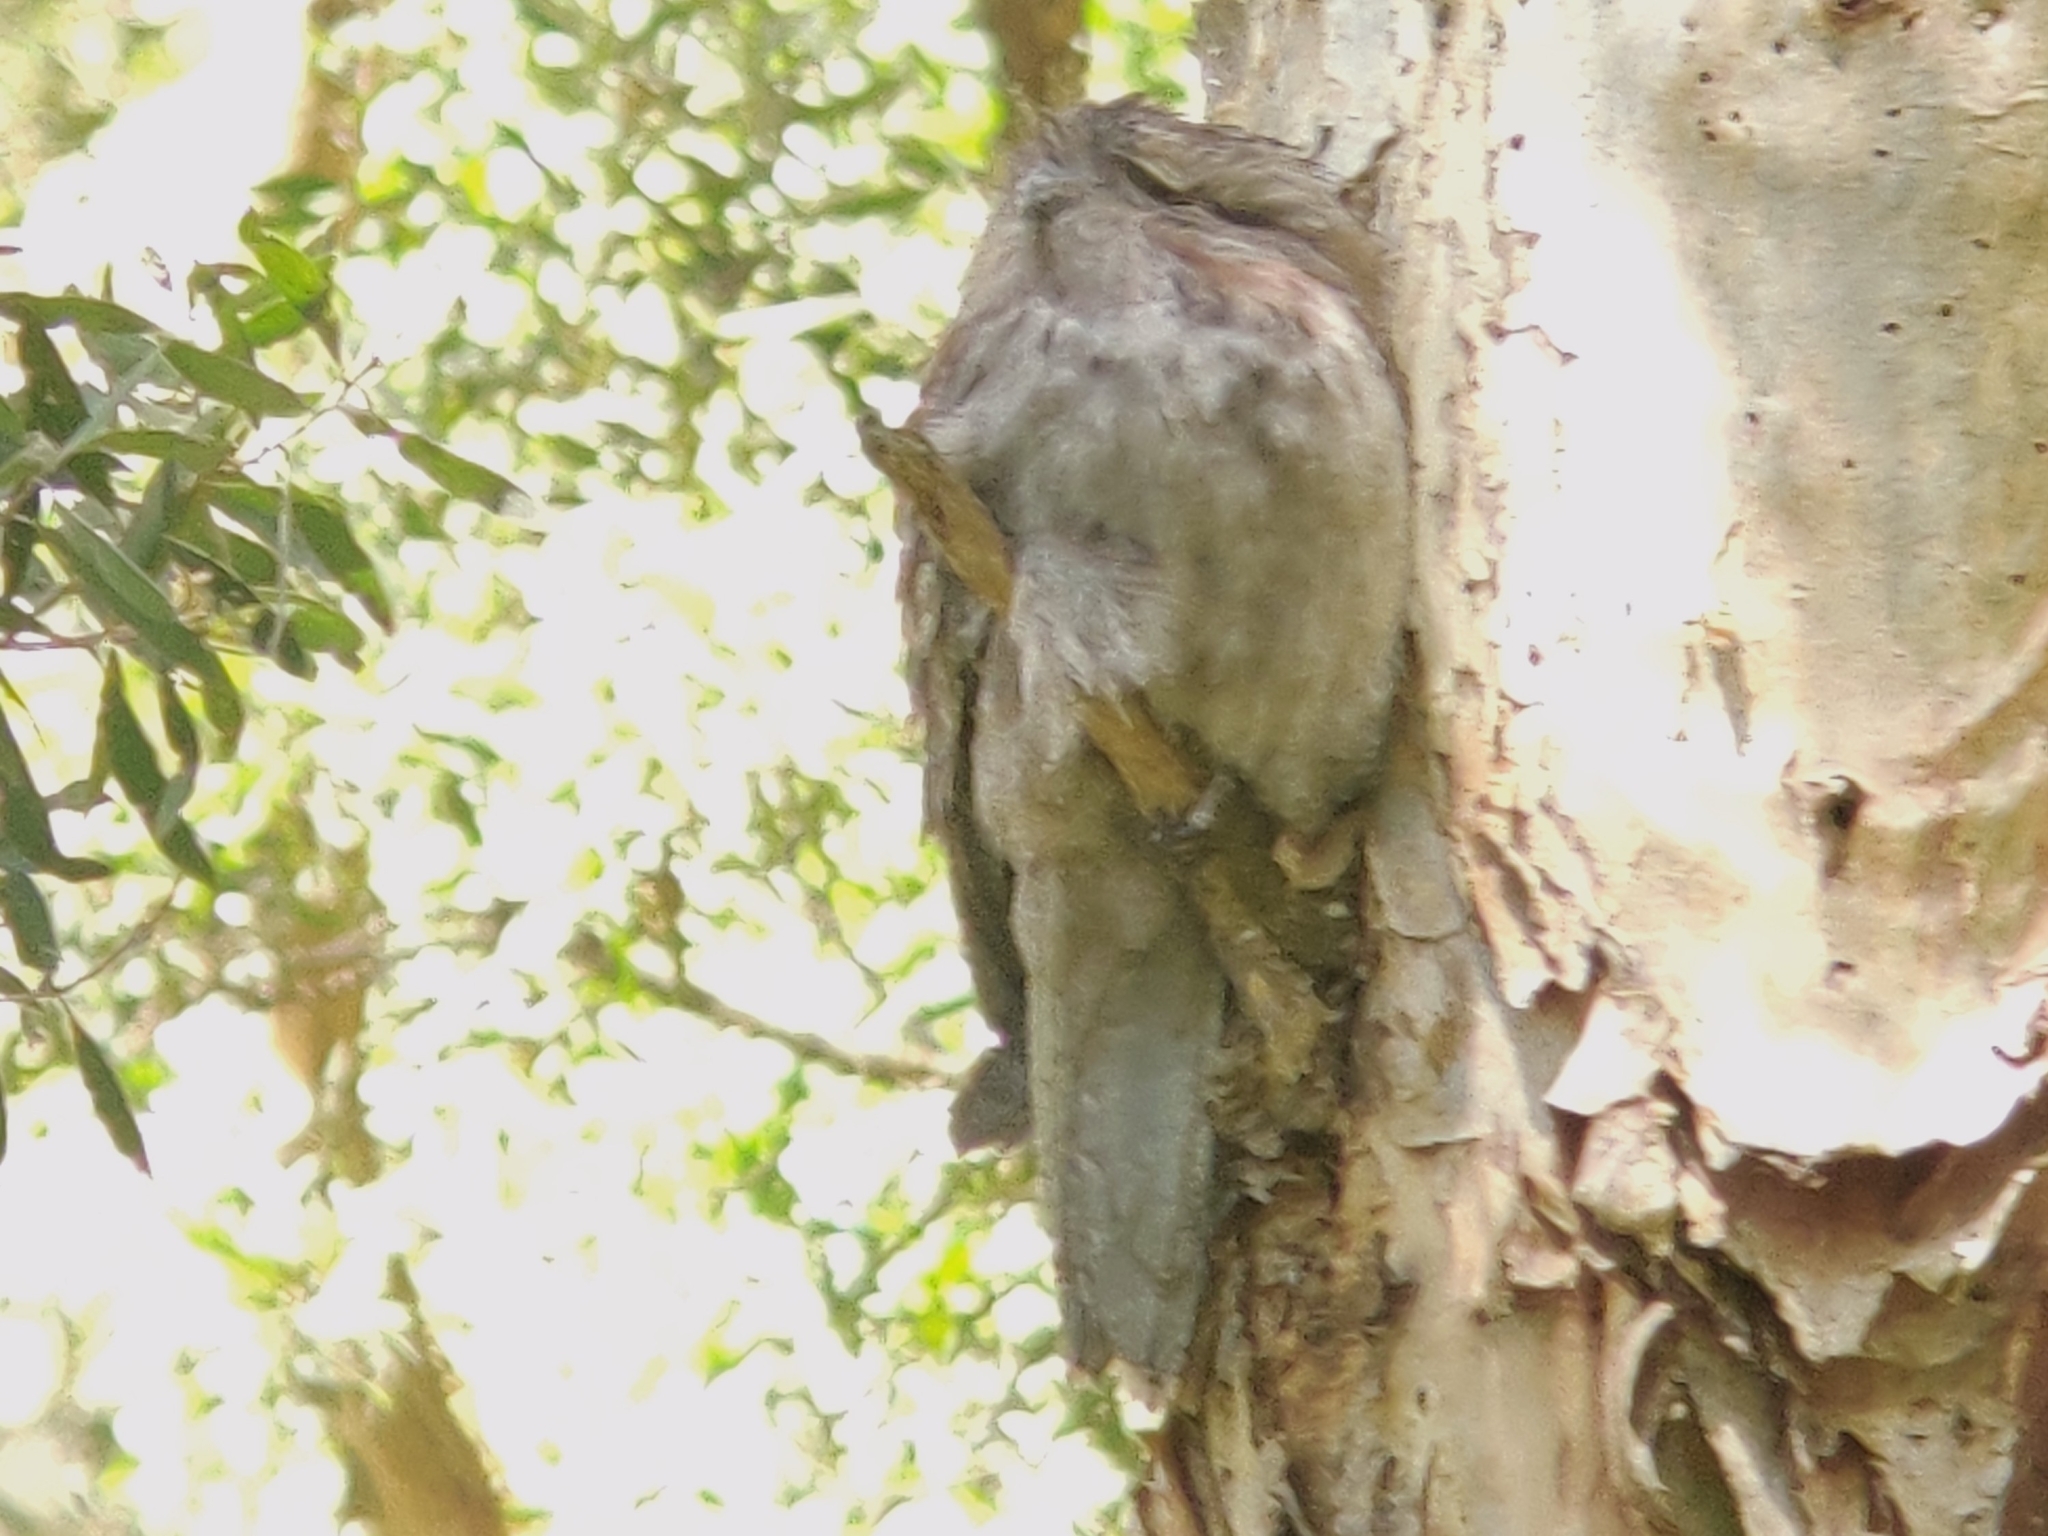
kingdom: Animalia
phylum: Chordata
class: Aves
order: Caprimulgiformes
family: Podargidae
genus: Podargus
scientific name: Podargus strigoides
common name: Tawny frogmouth
